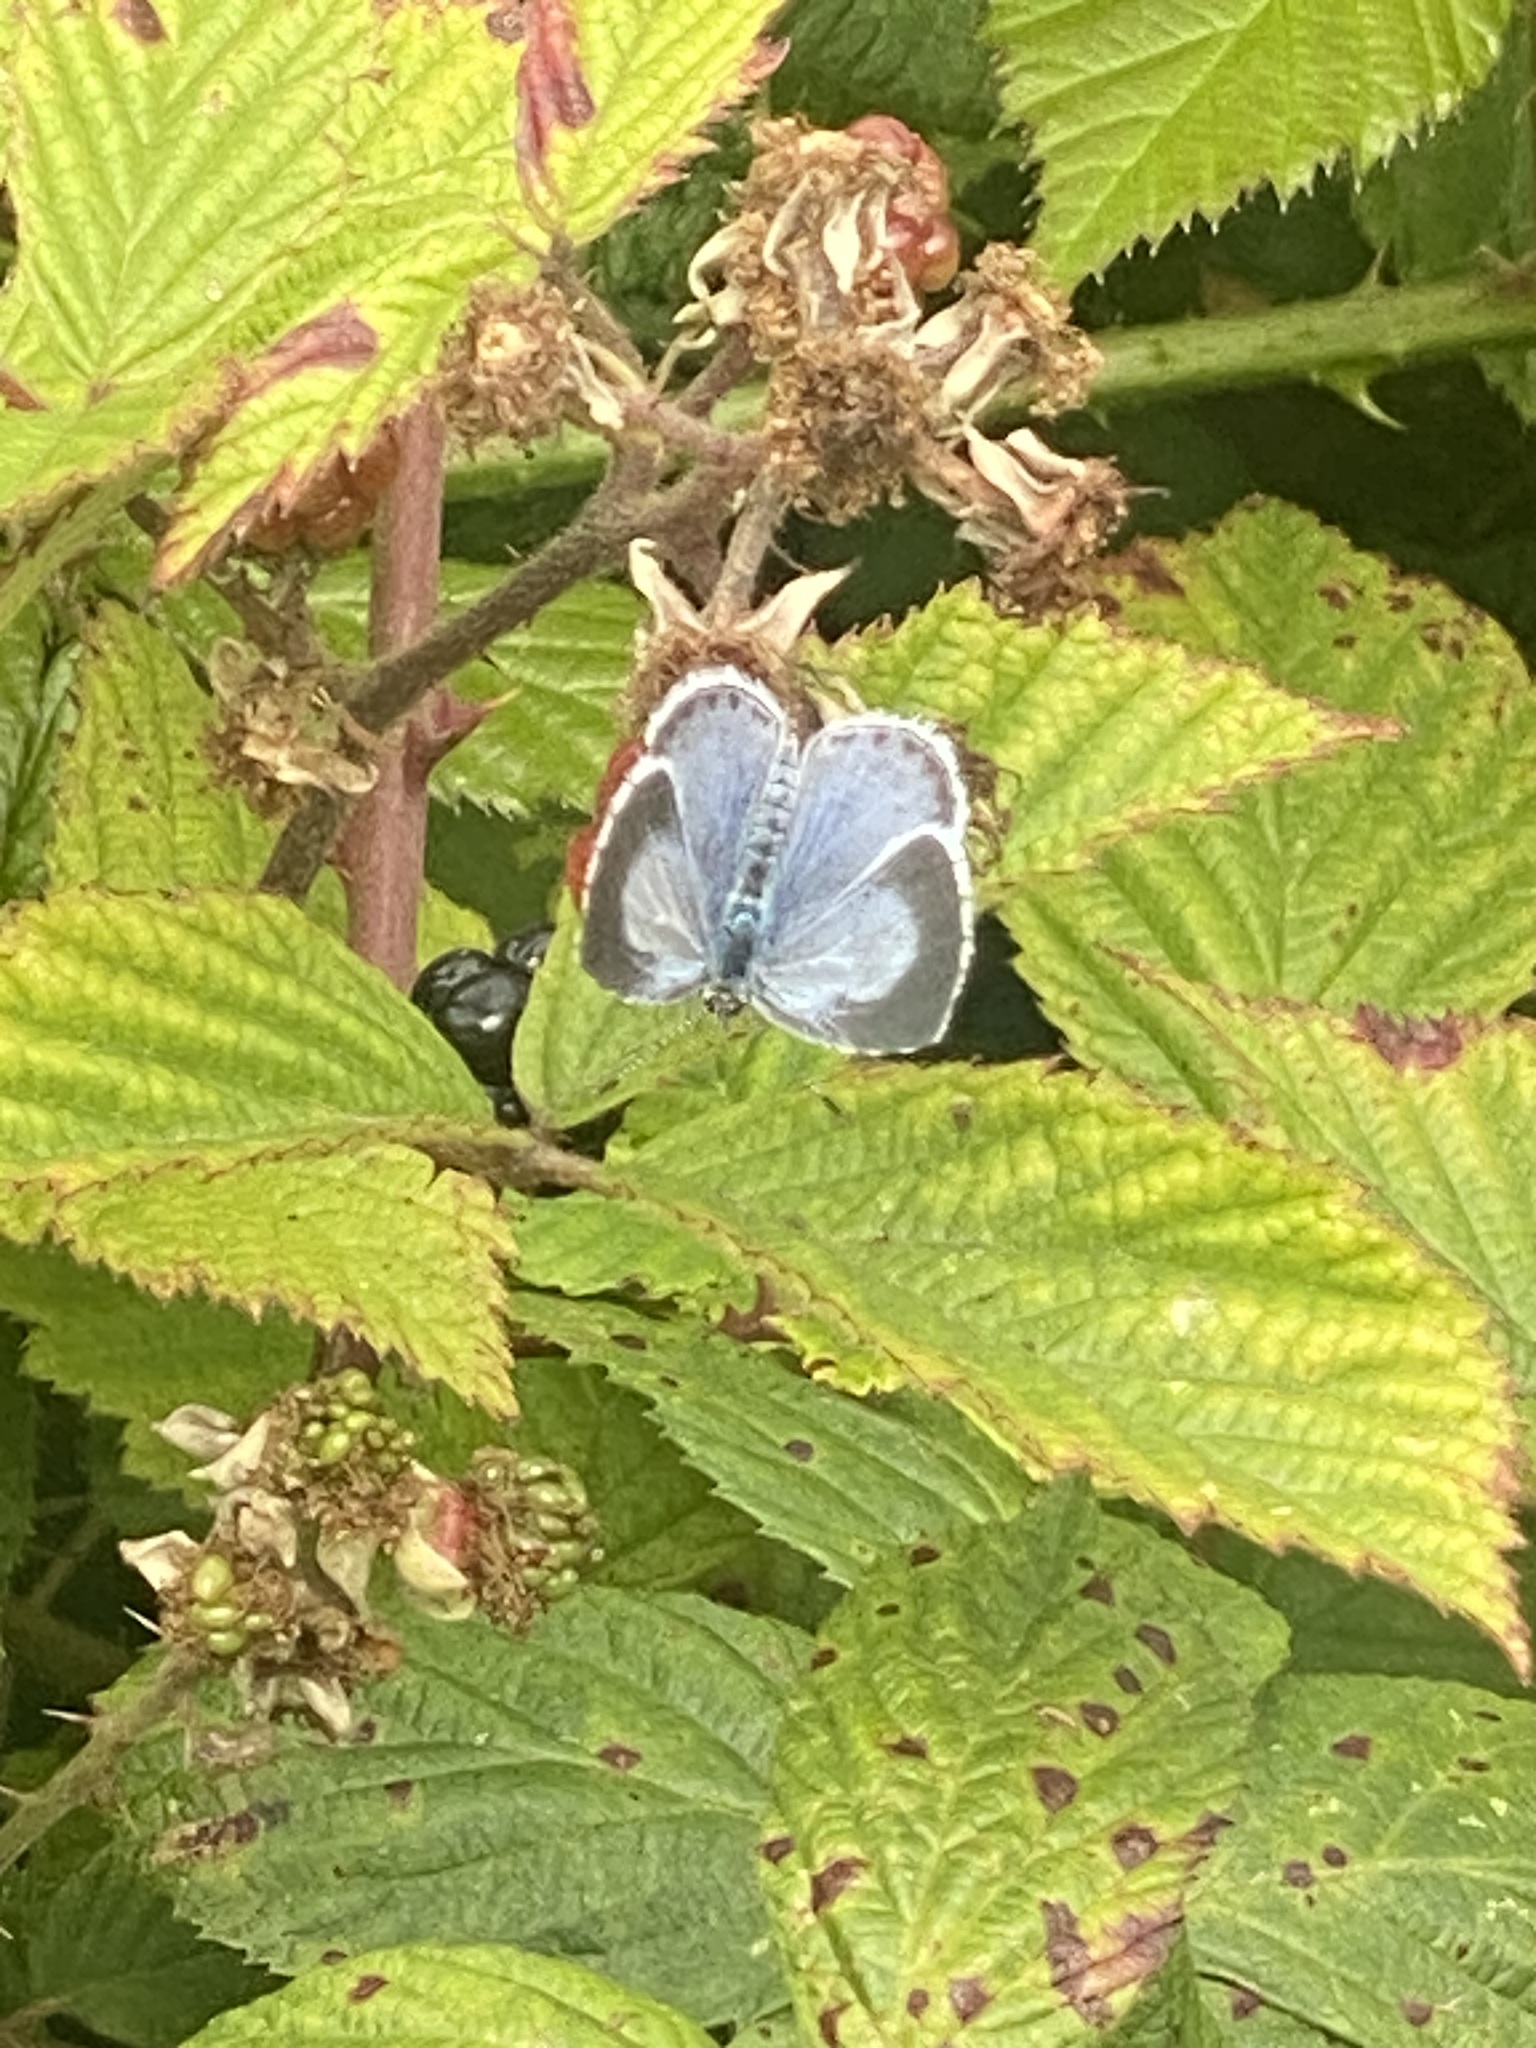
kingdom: Animalia
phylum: Arthropoda
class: Insecta
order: Lepidoptera
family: Lycaenidae
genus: Celastrina
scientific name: Celastrina argiolus
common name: Holly blue
